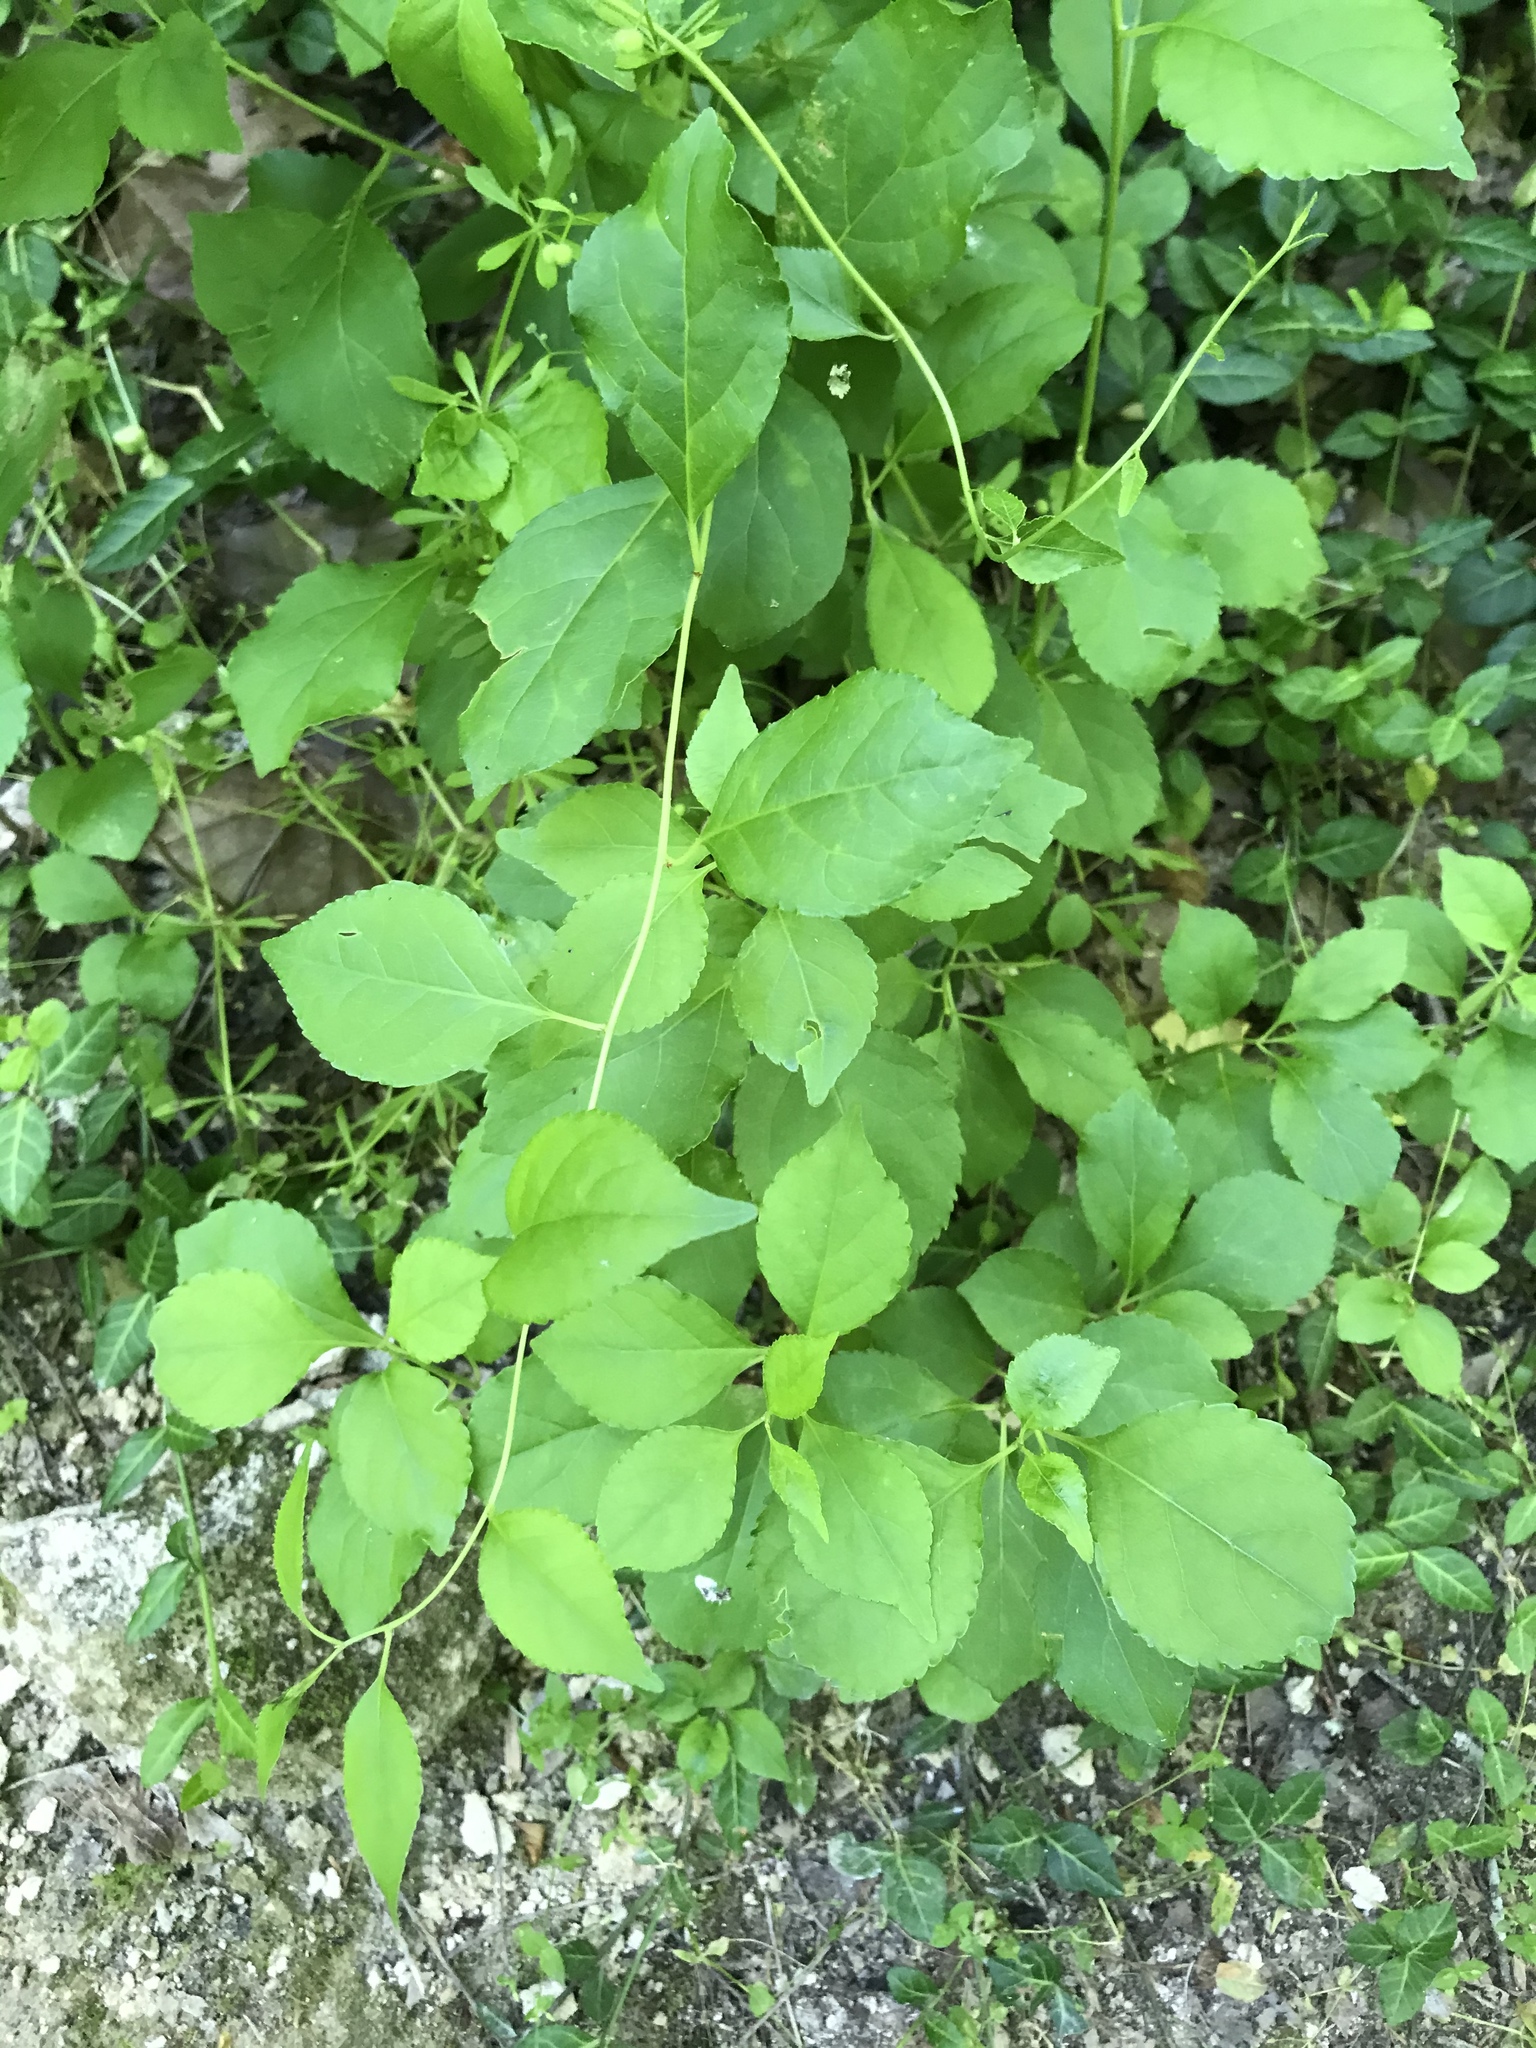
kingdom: Plantae
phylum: Tracheophyta
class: Magnoliopsida
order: Celastrales
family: Celastraceae
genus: Celastrus
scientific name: Celastrus orbiculatus
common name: Oriental bittersweet
